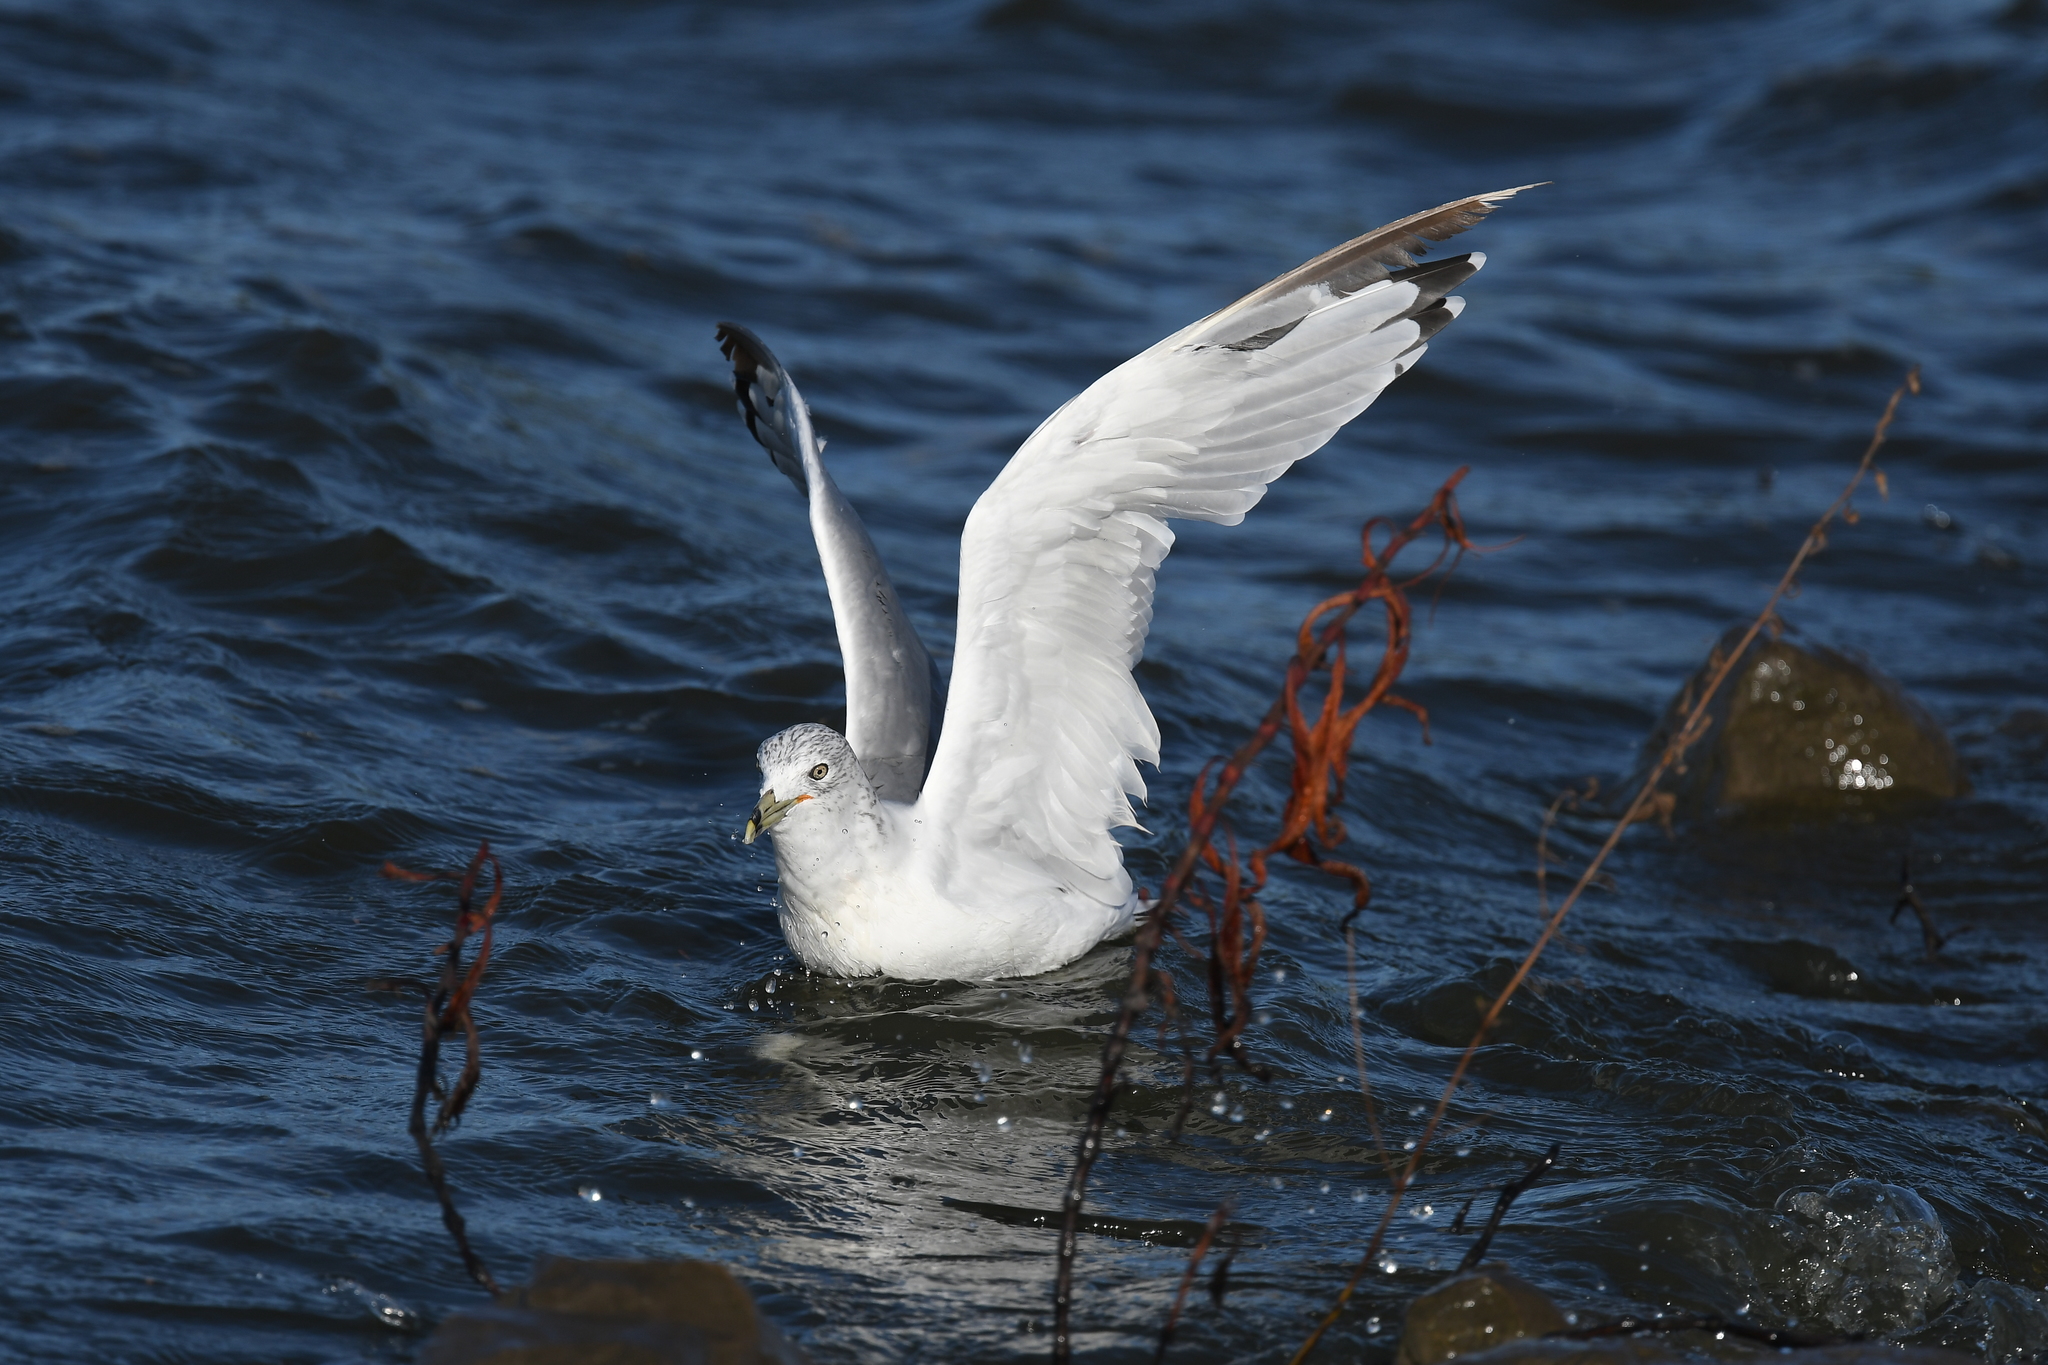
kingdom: Animalia
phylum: Chordata
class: Aves
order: Charadriiformes
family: Laridae
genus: Larus
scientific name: Larus delawarensis
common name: Ring-billed gull
